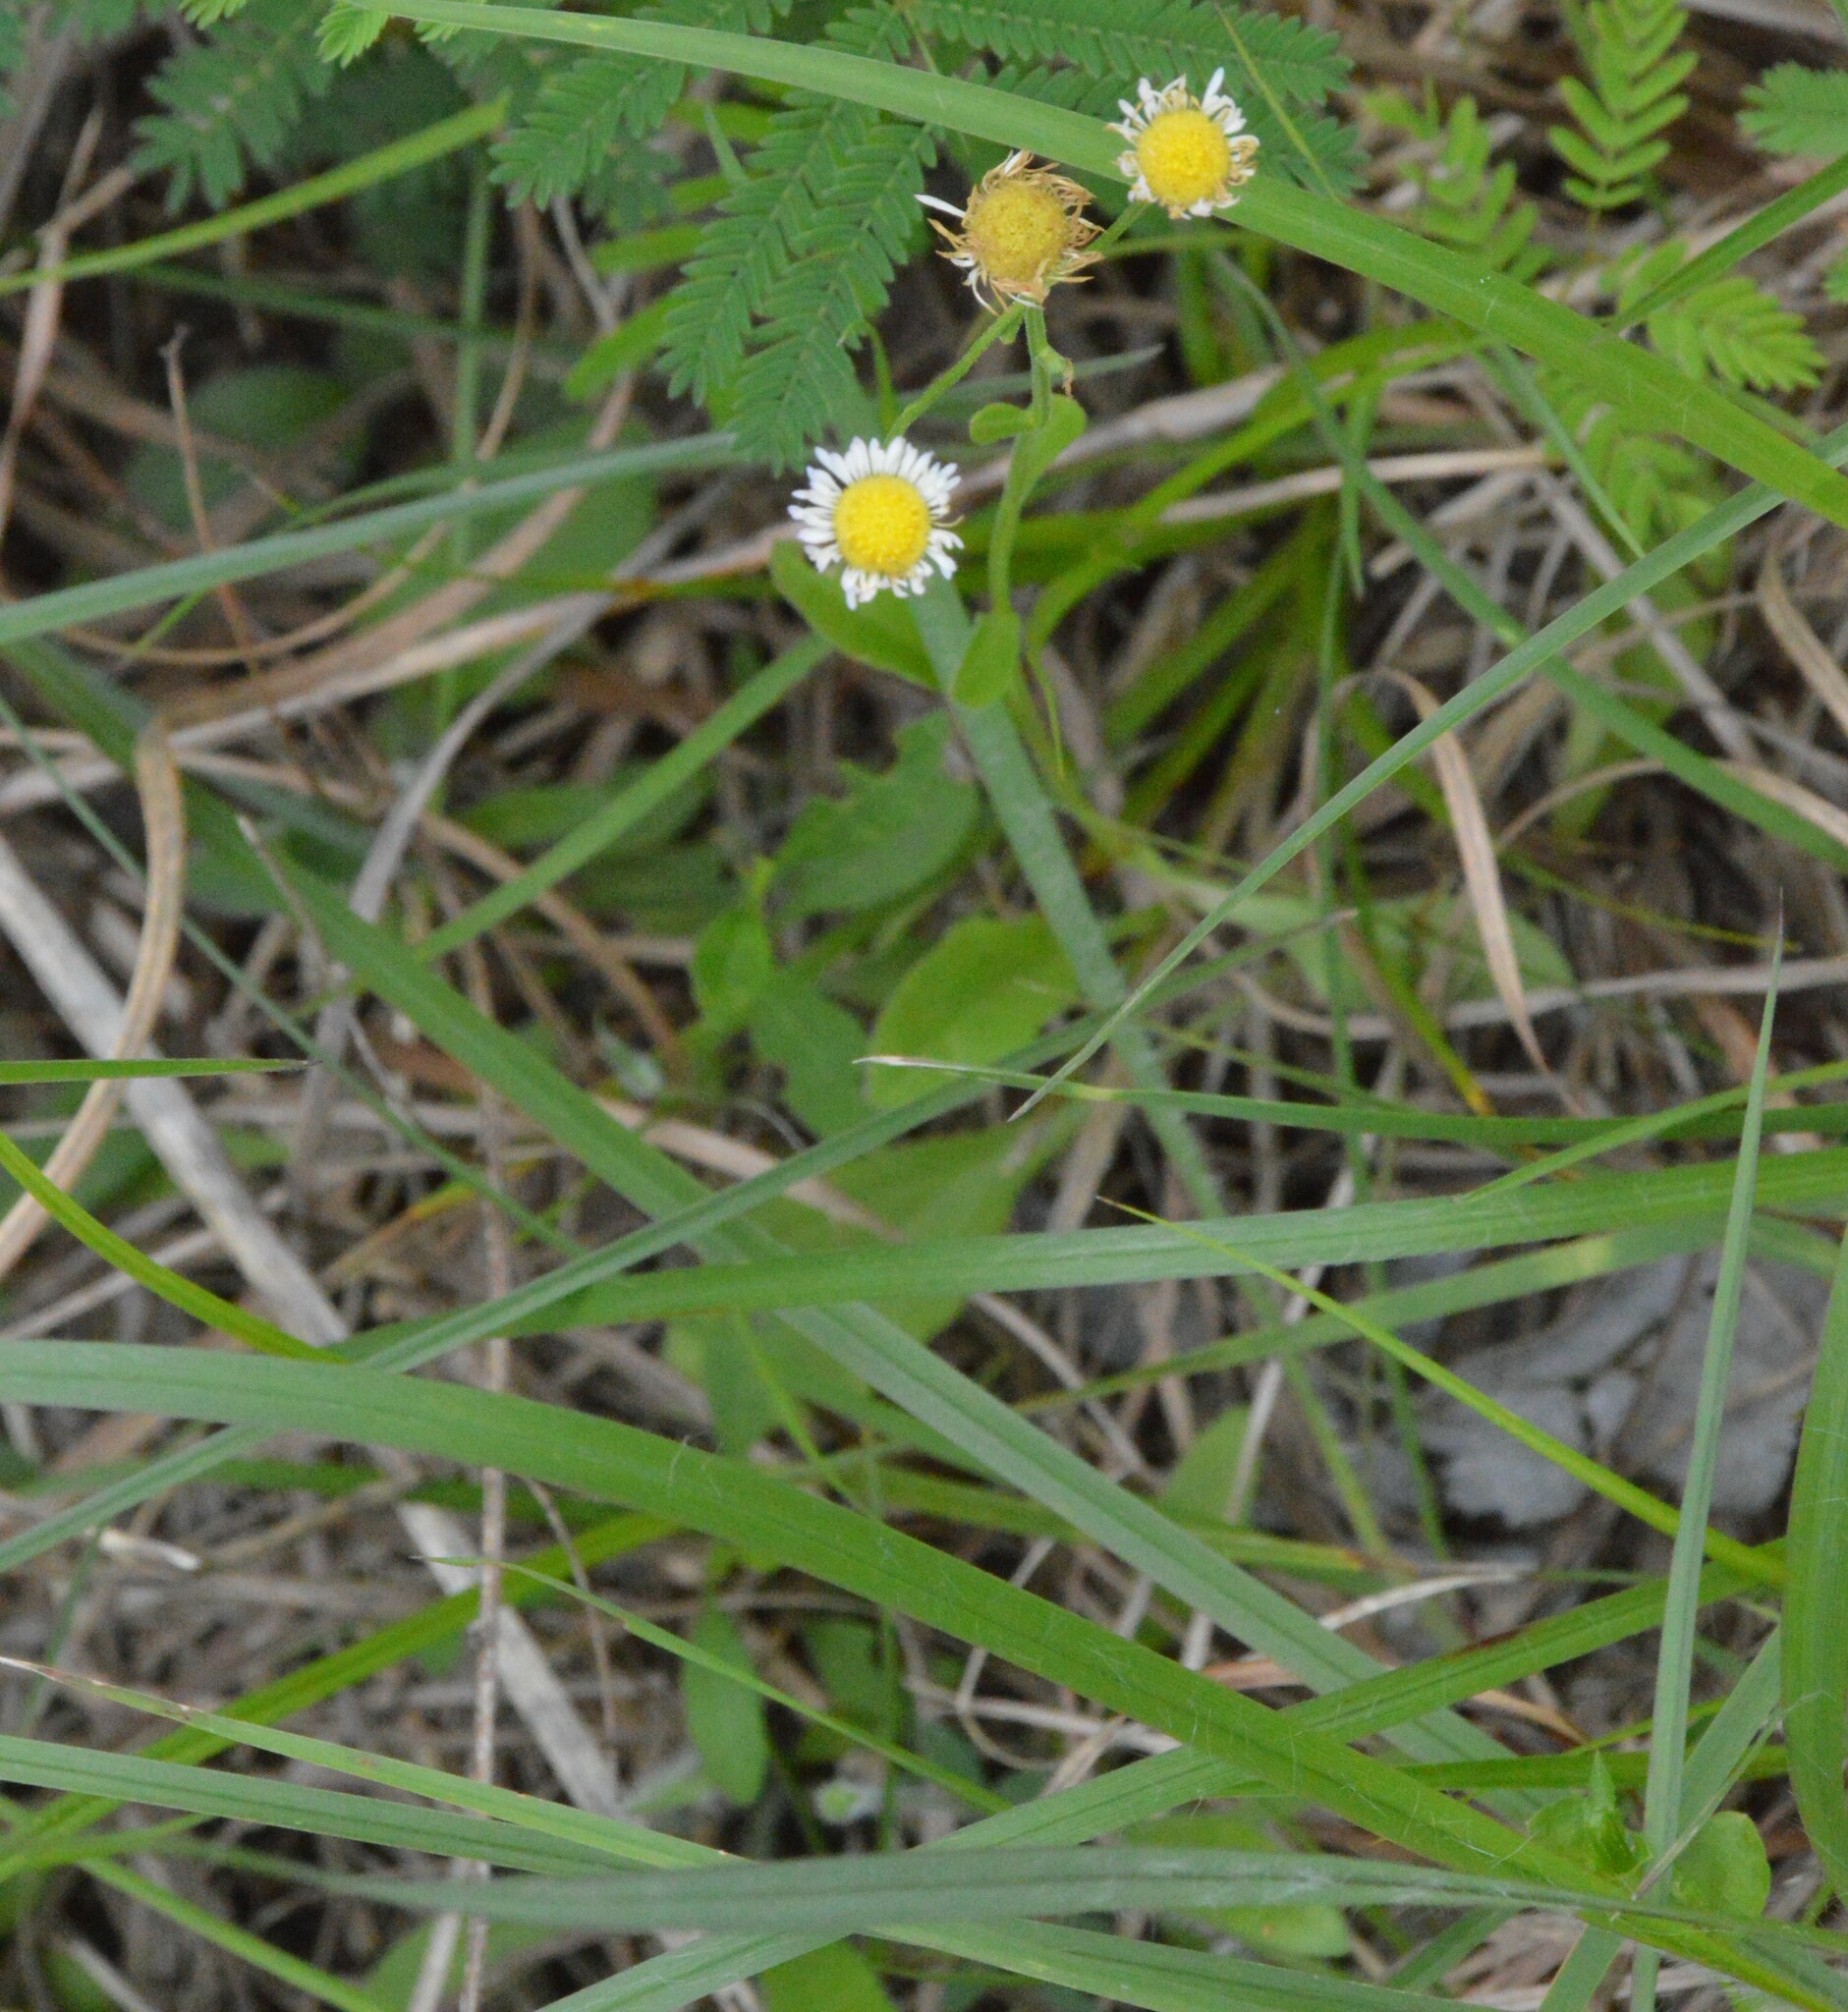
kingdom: Plantae
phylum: Tracheophyta
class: Magnoliopsida
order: Asterales
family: Asteraceae
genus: Erigeron
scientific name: Erigeron tenuis
